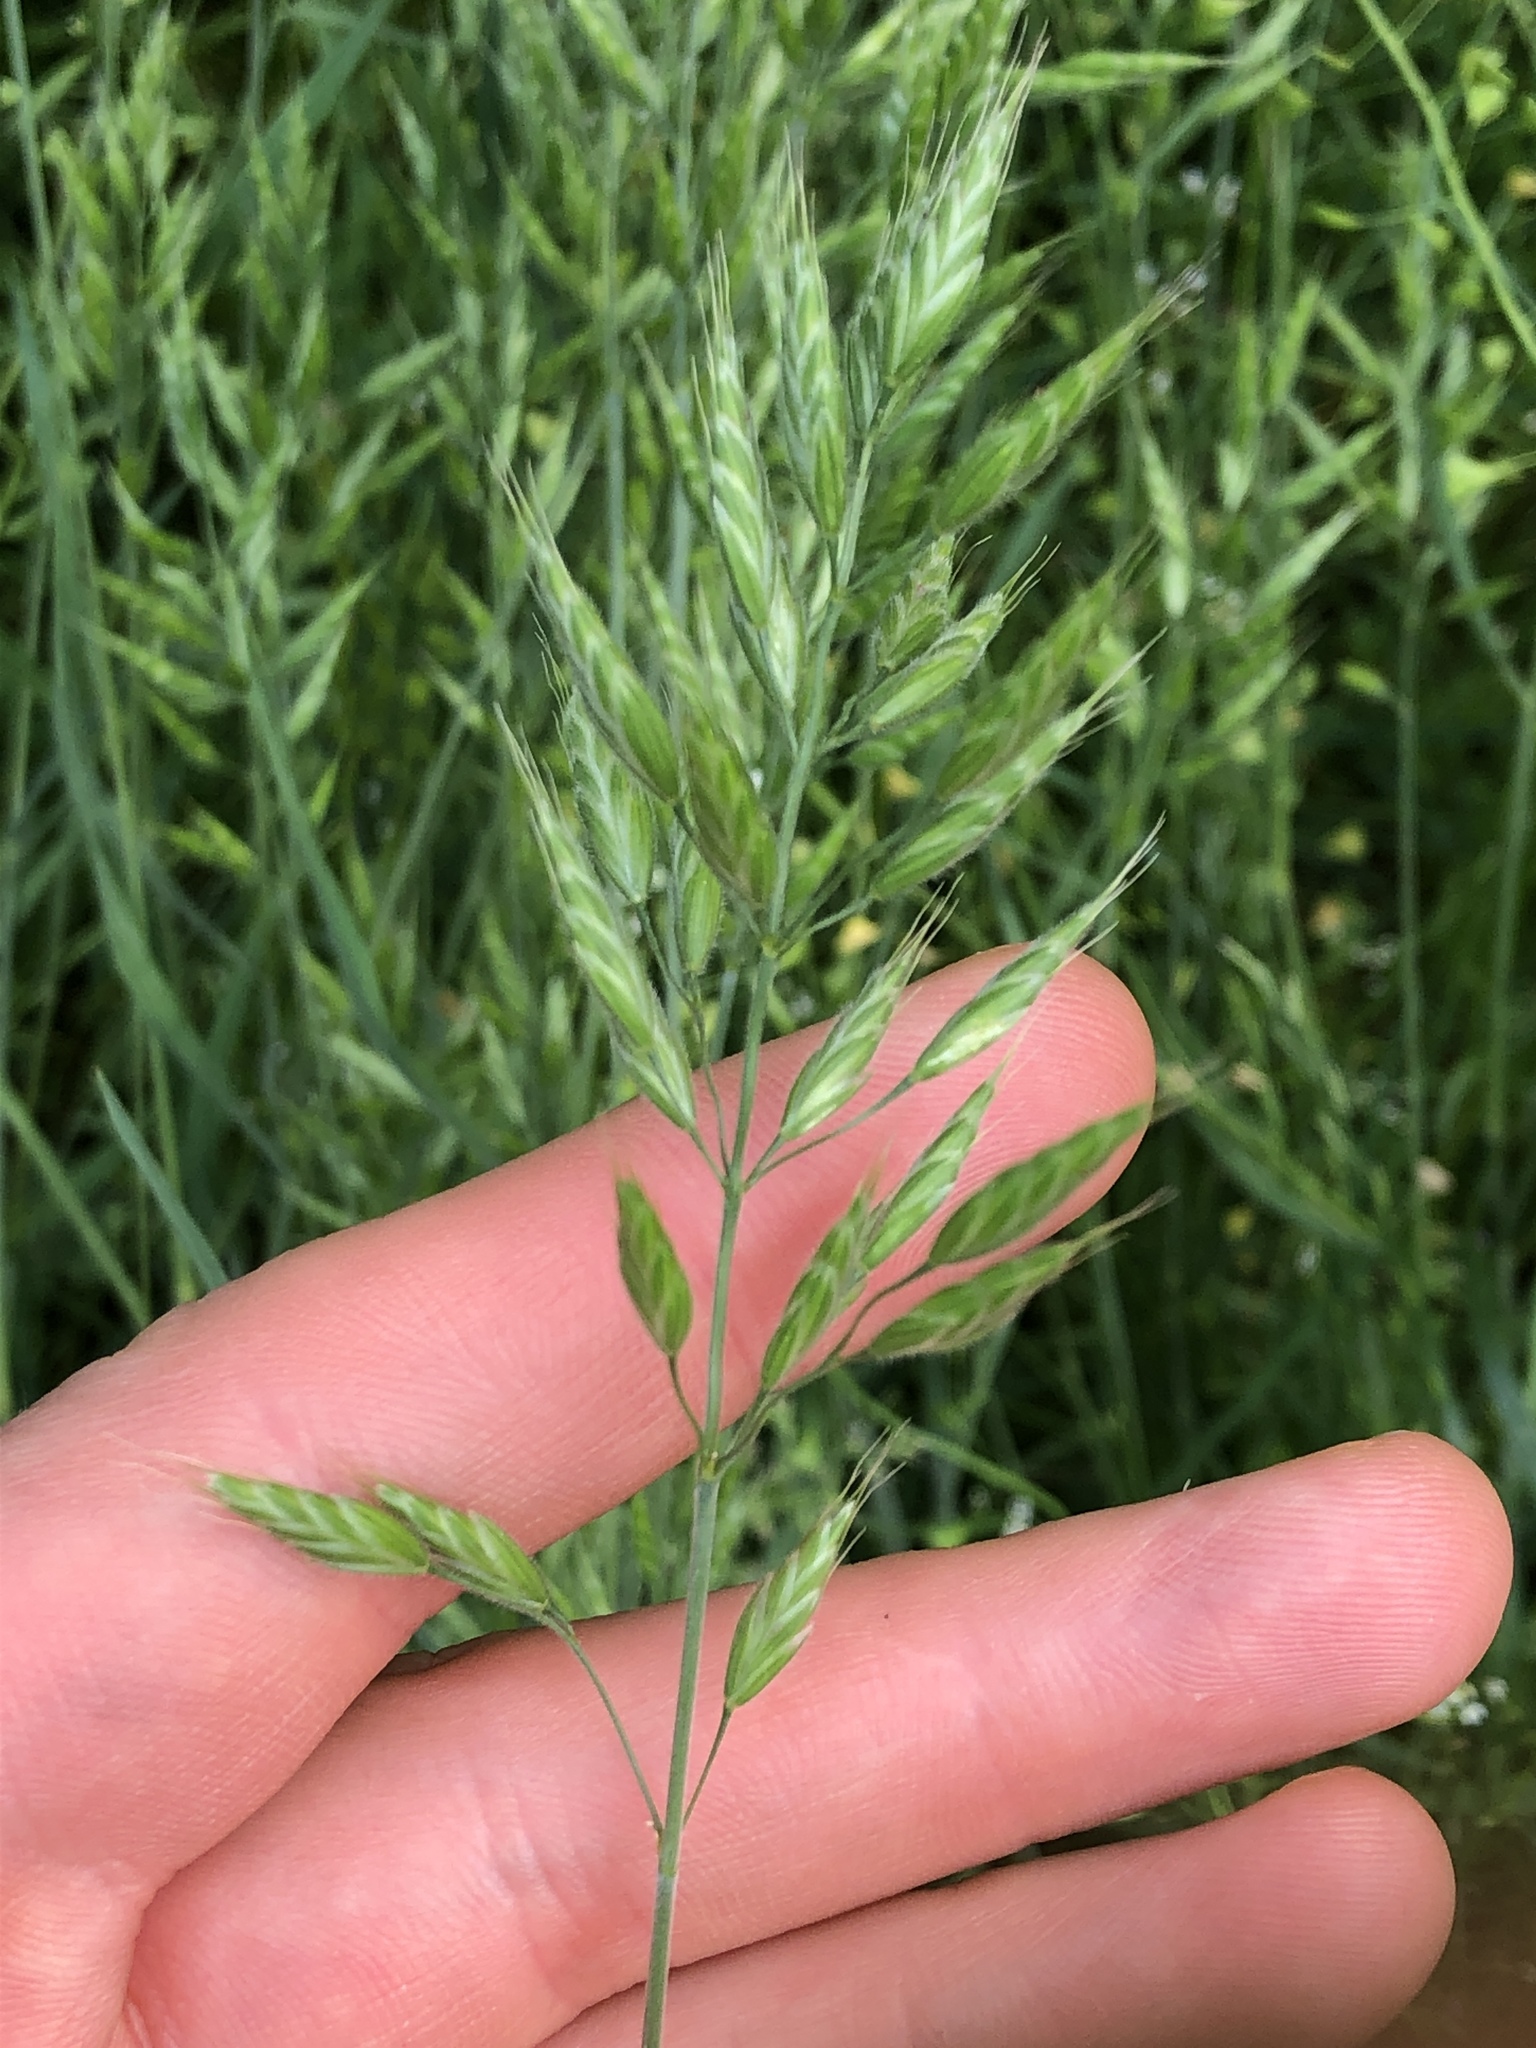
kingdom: Plantae
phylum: Tracheophyta
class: Liliopsida
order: Poales
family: Poaceae
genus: Bromus
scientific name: Bromus hordeaceus
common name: Soft brome
